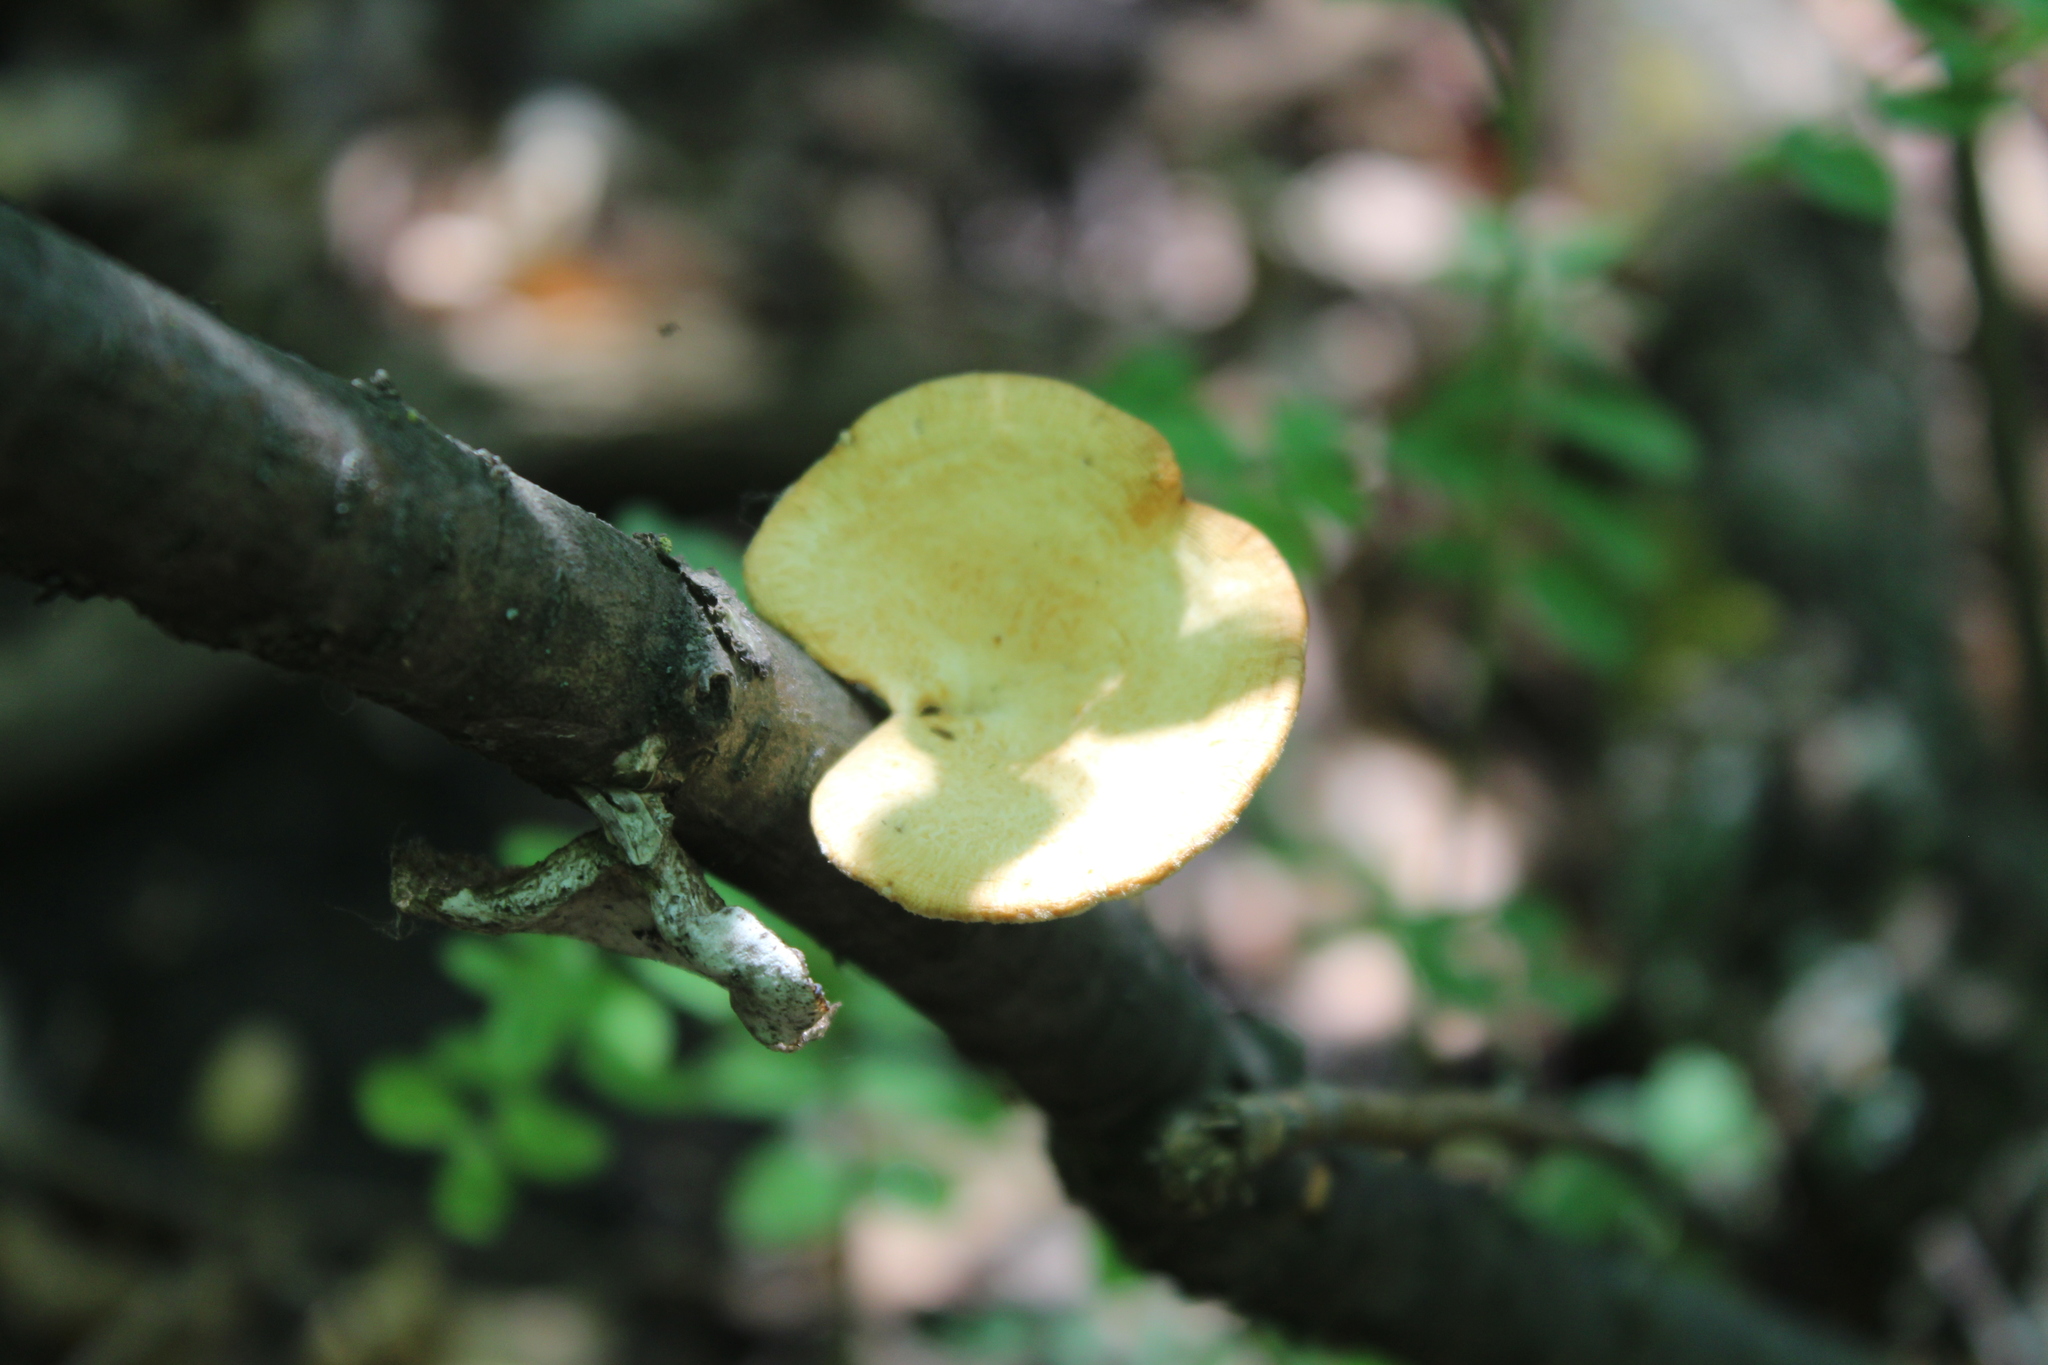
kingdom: Fungi
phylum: Basidiomycota
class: Agaricomycetes
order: Polyporales
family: Polyporaceae
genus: Neofavolus
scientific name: Neofavolus alveolaris
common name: Hexagonal-pored polypore
